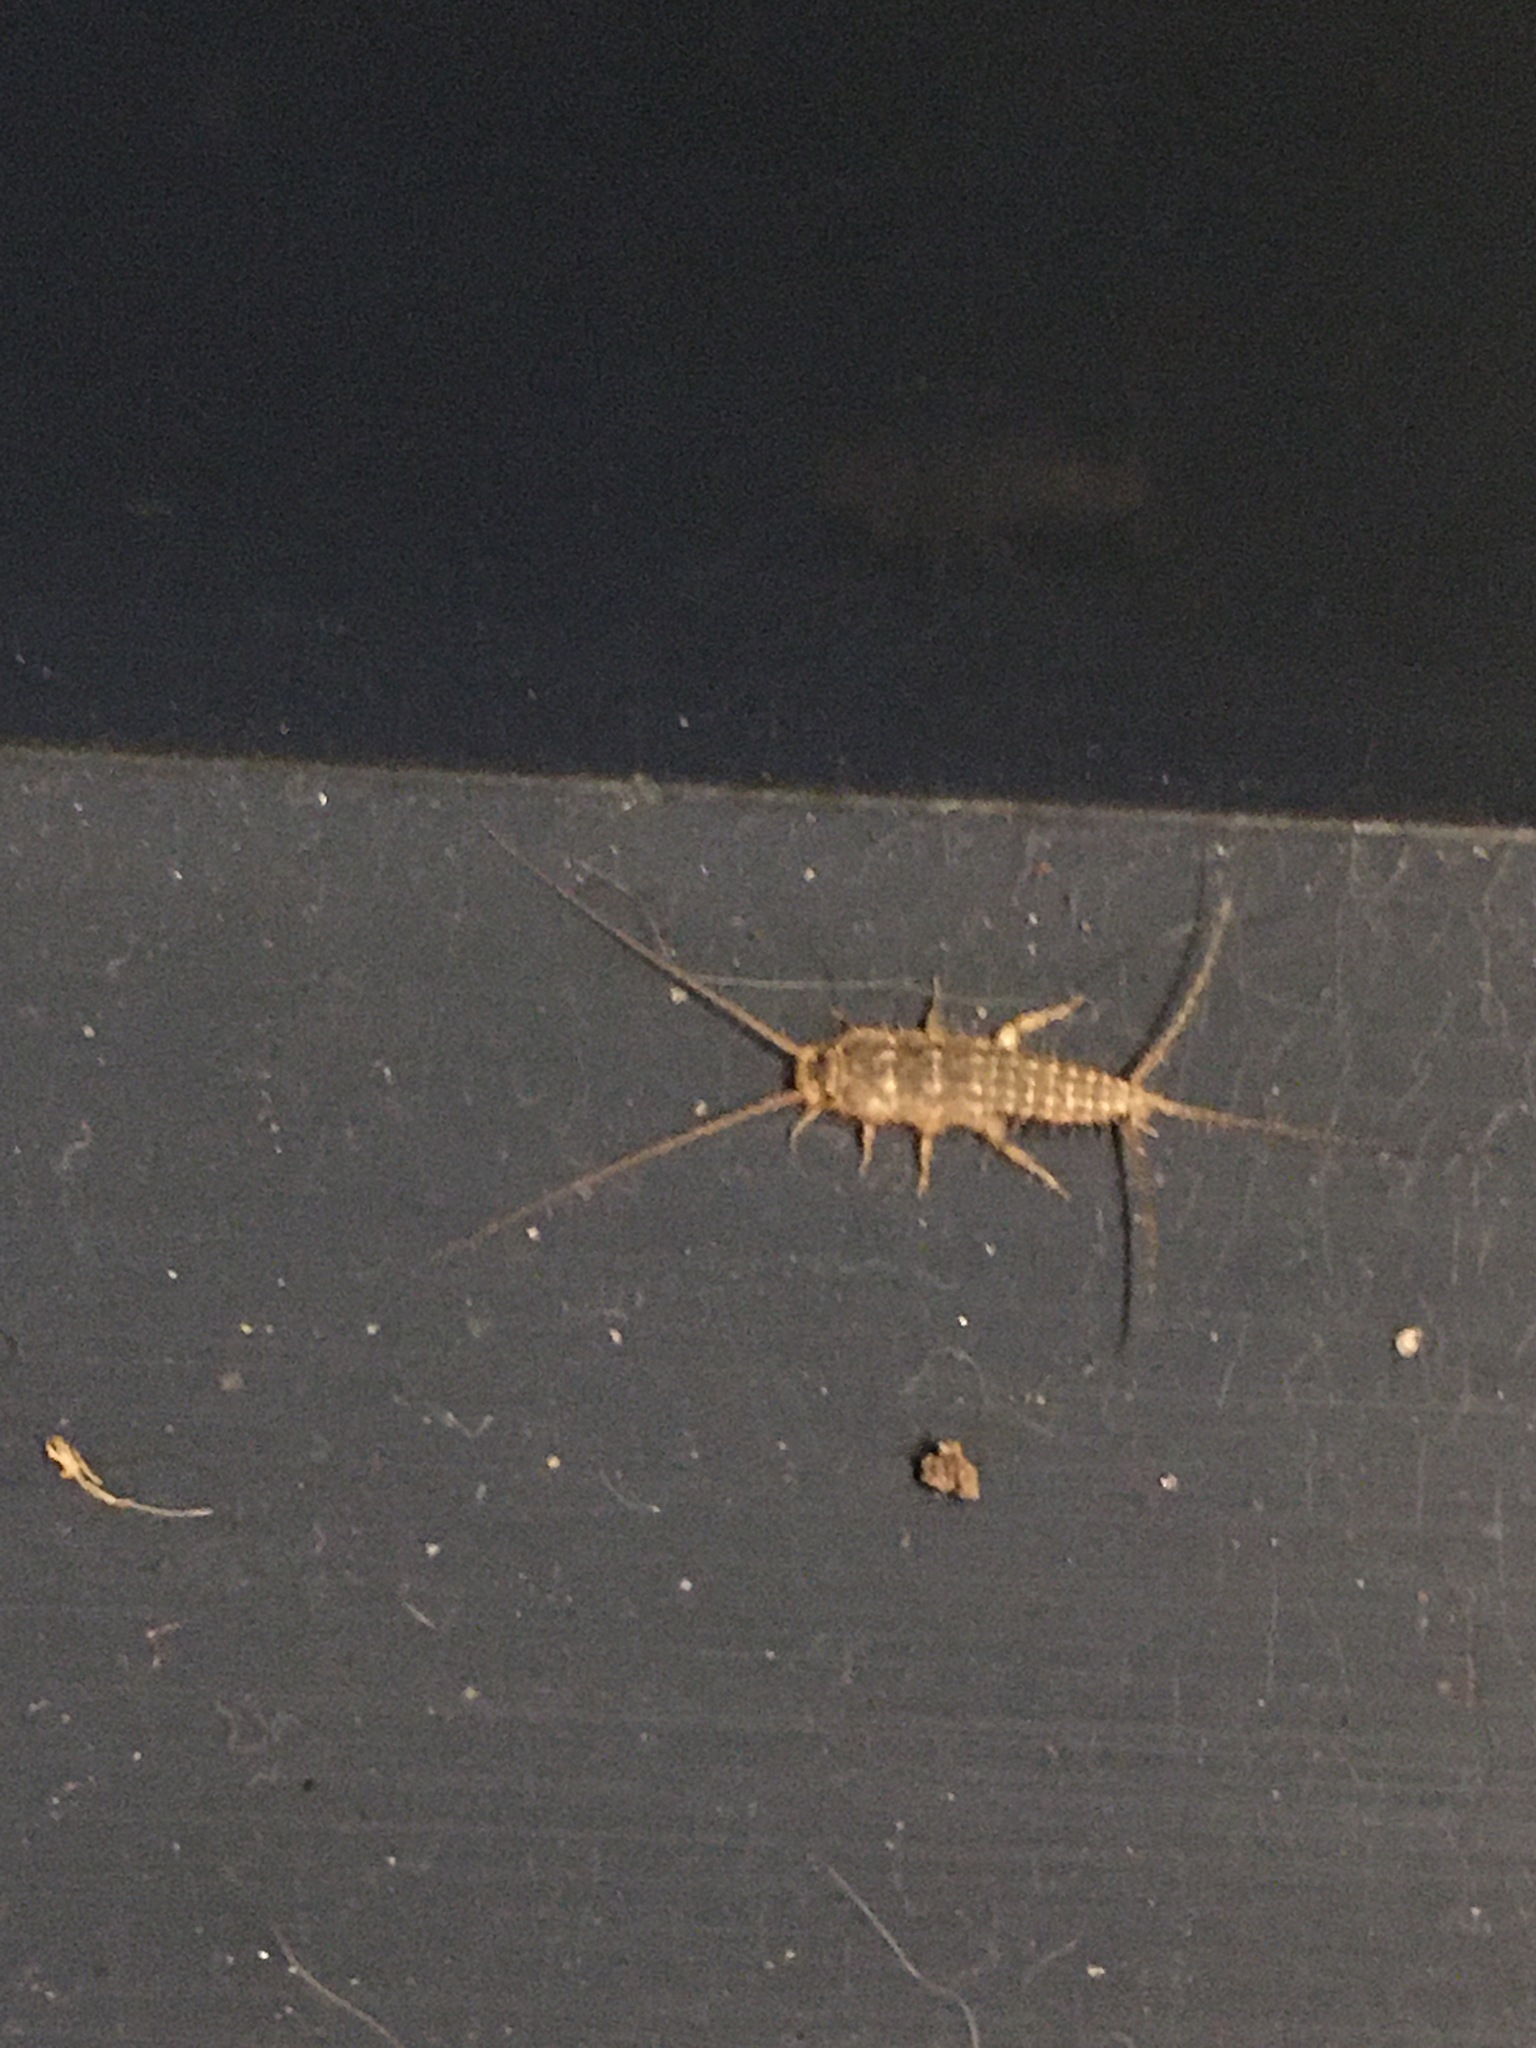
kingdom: Animalia
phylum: Arthropoda
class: Insecta
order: Zygentoma
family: Lepismatidae
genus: Ctenolepisma
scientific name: Ctenolepisma lineata
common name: Four-lined silverfish
